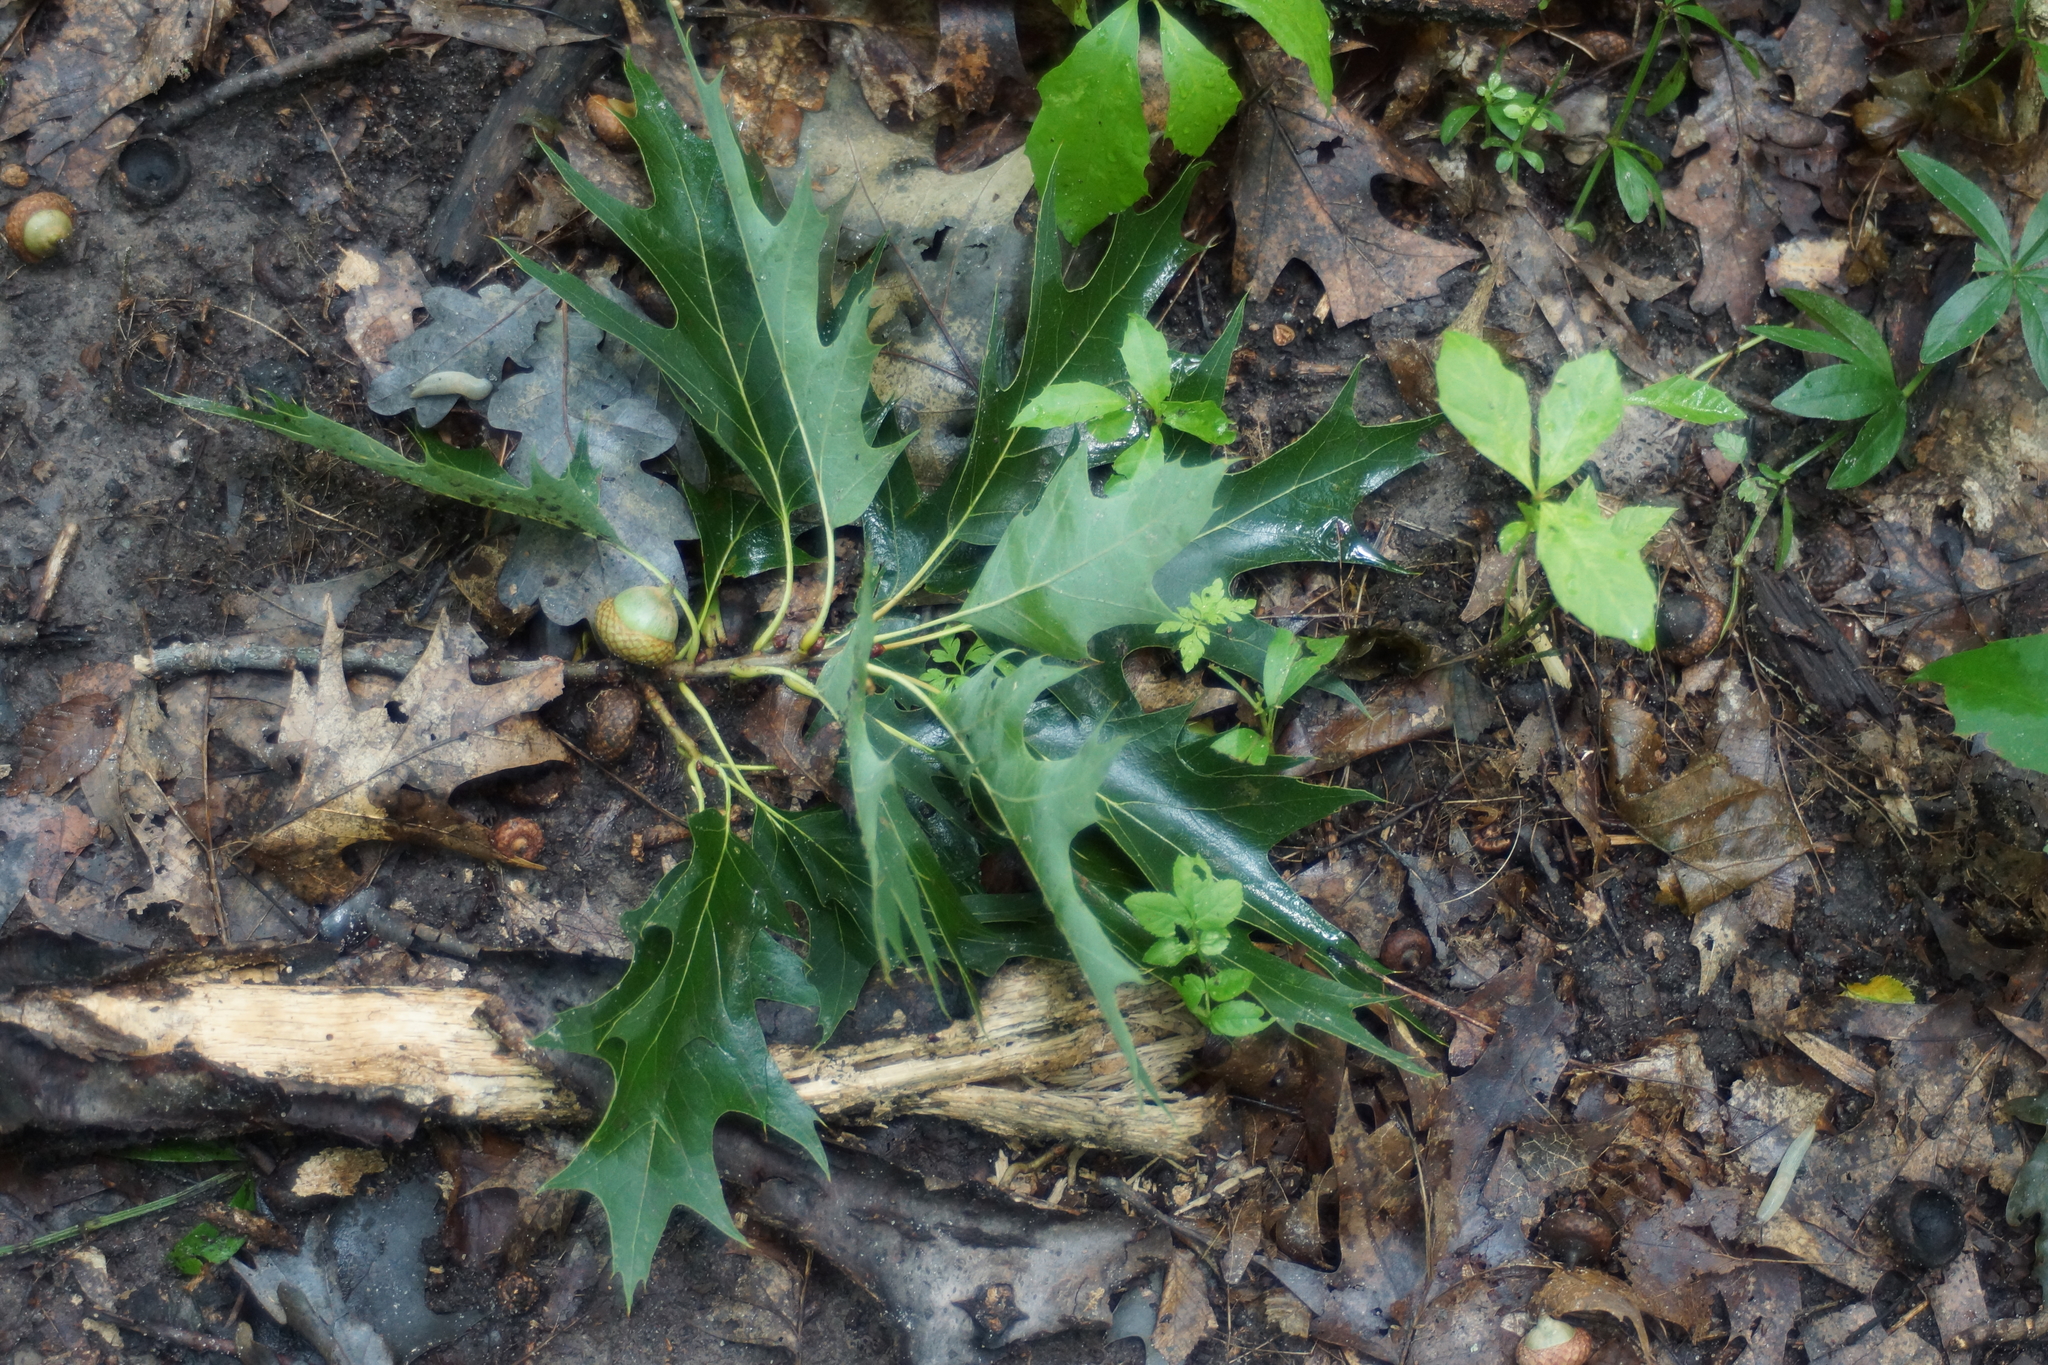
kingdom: Plantae
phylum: Tracheophyta
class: Magnoliopsida
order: Fagales
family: Fagaceae
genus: Quercus
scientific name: Quercus rubra
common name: Red oak
